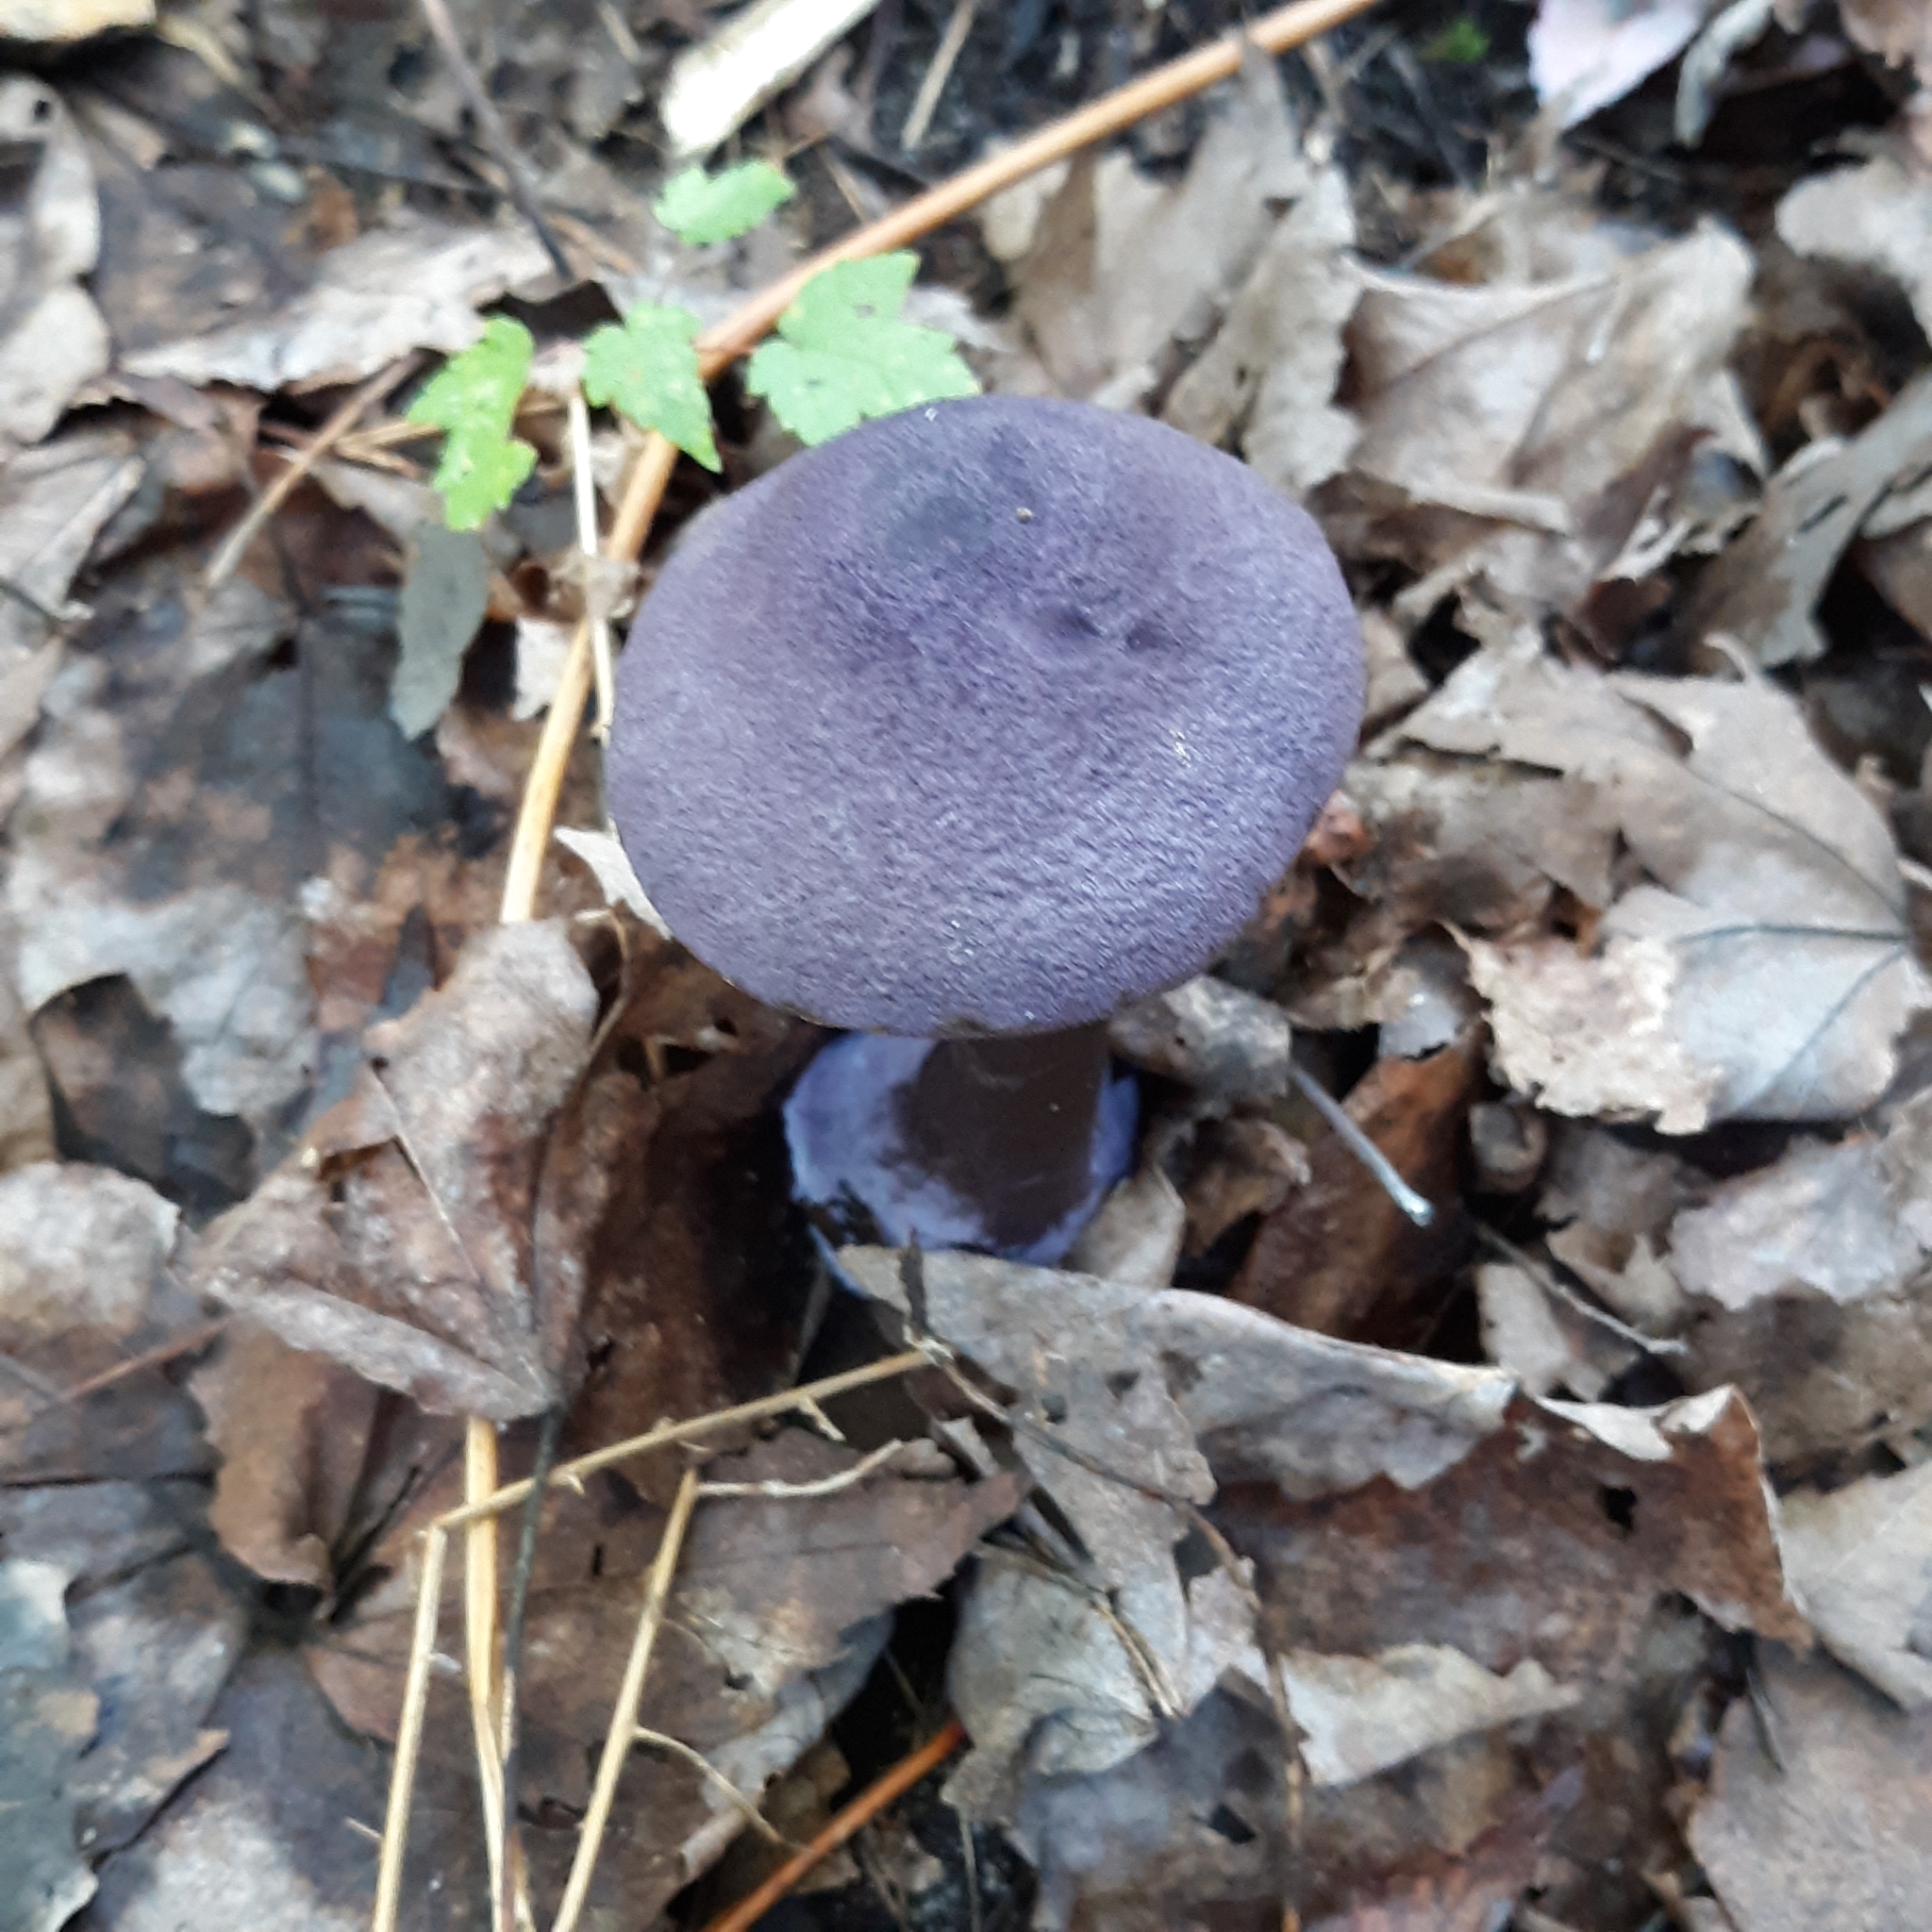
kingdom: Fungi
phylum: Basidiomycota
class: Agaricomycetes
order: Agaricales
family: Cortinariaceae
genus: Cortinarius
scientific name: Cortinarius violaceus
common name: Violet webcap
